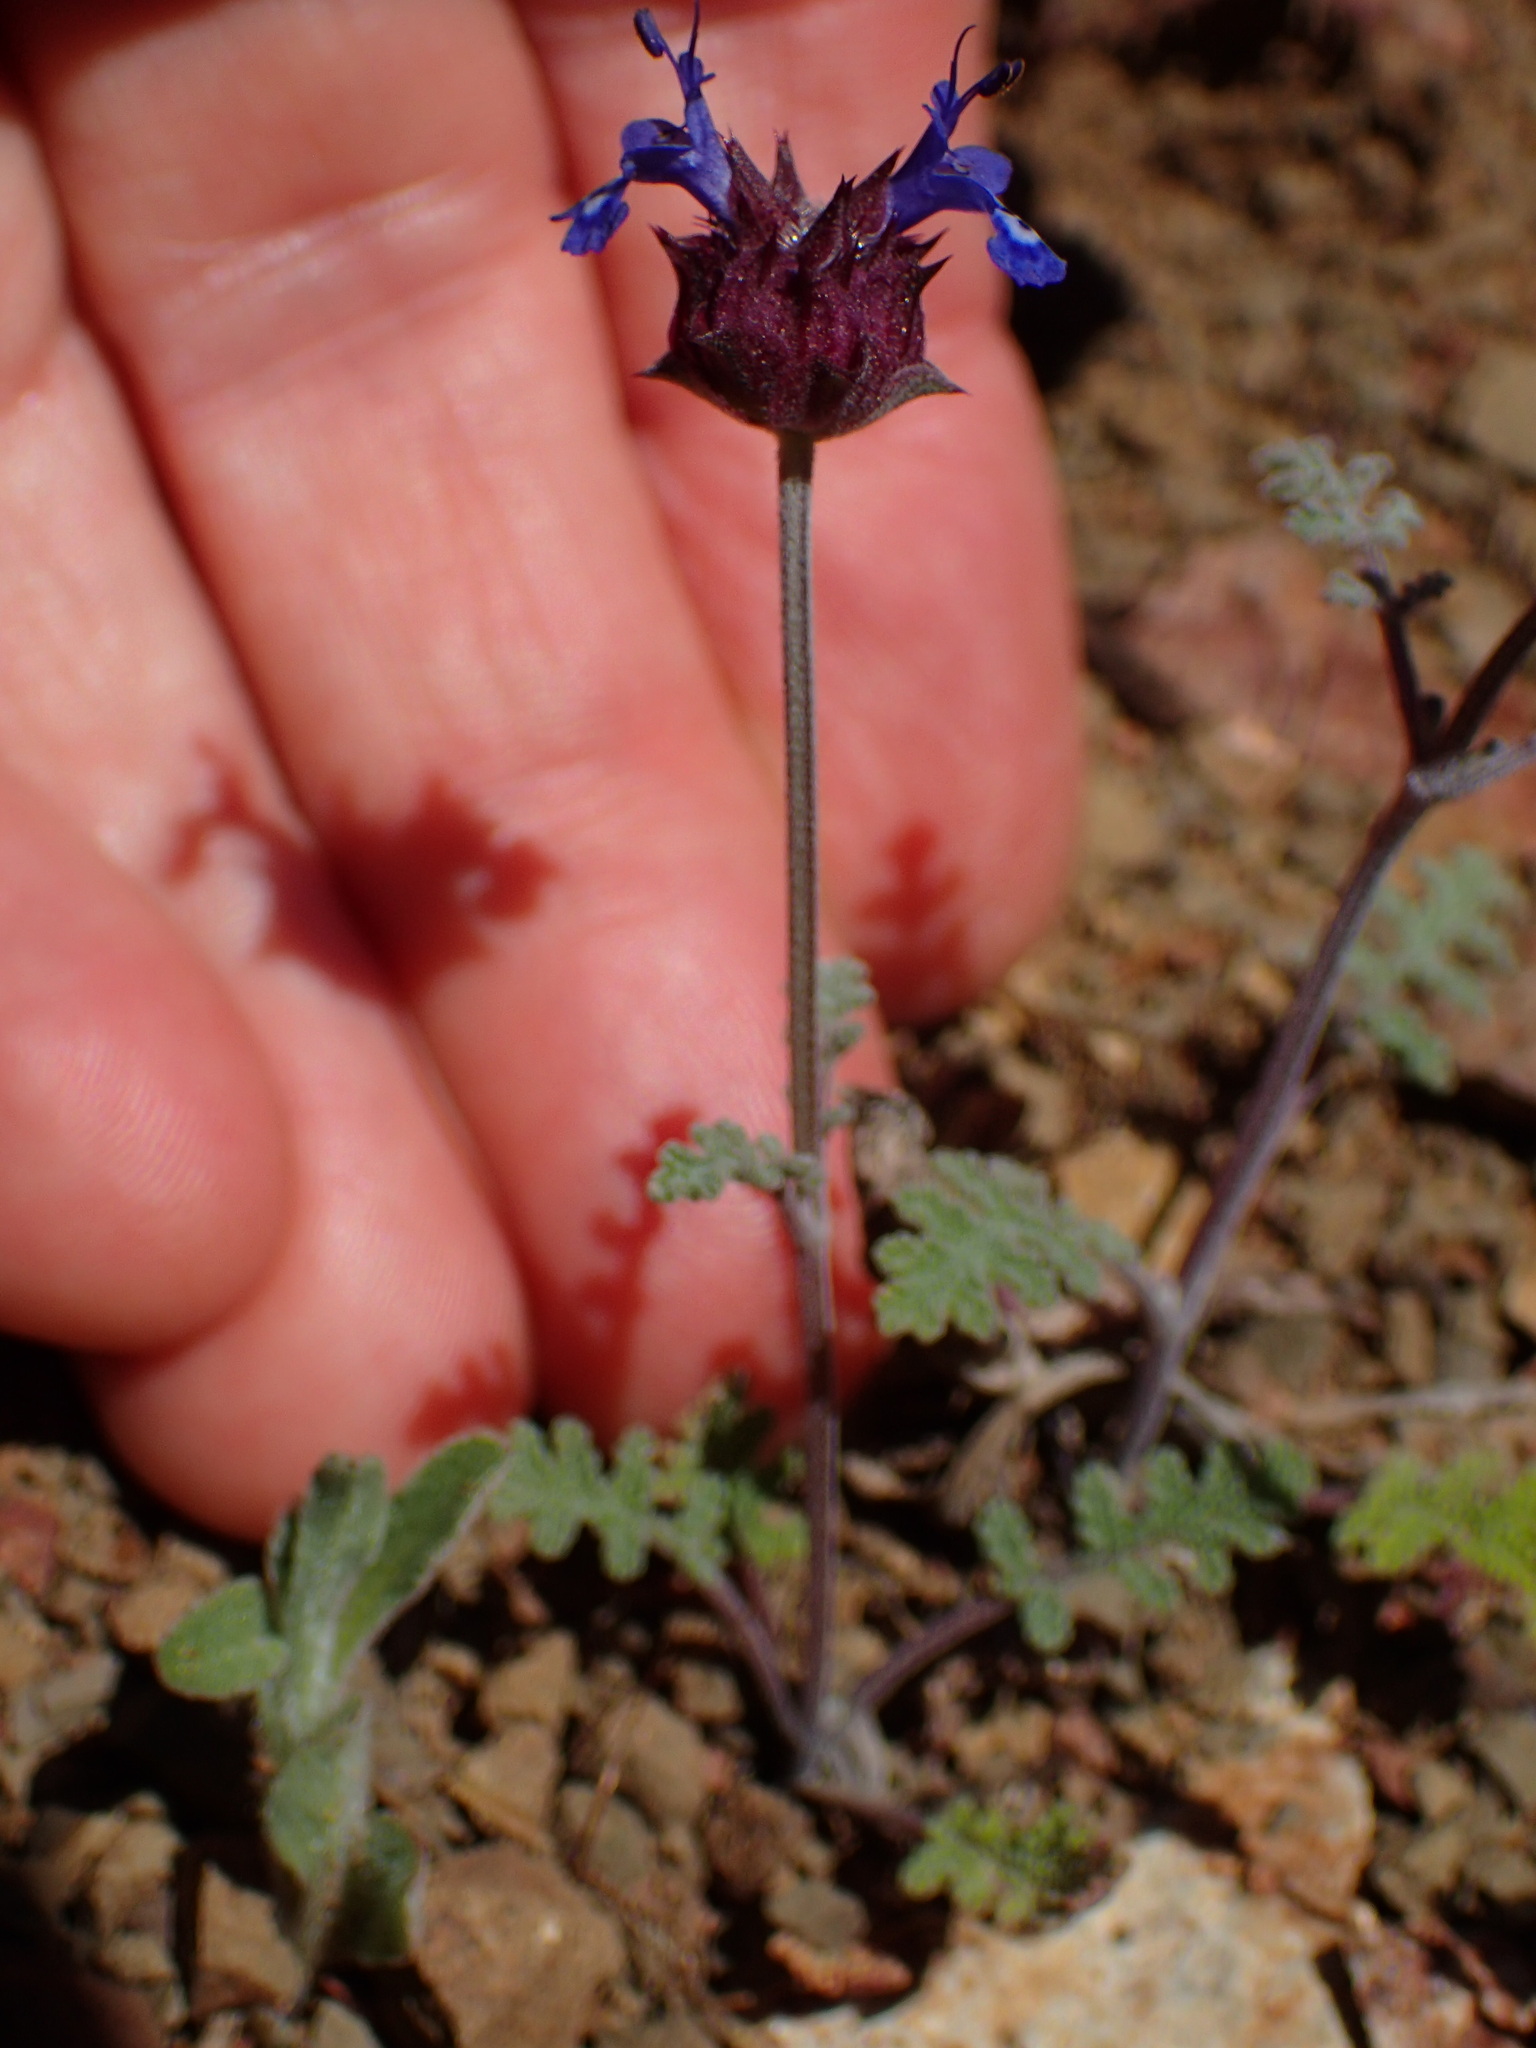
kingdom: Plantae
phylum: Tracheophyta
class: Magnoliopsida
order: Lamiales
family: Lamiaceae
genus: Salvia
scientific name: Salvia columbariae
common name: Chia
